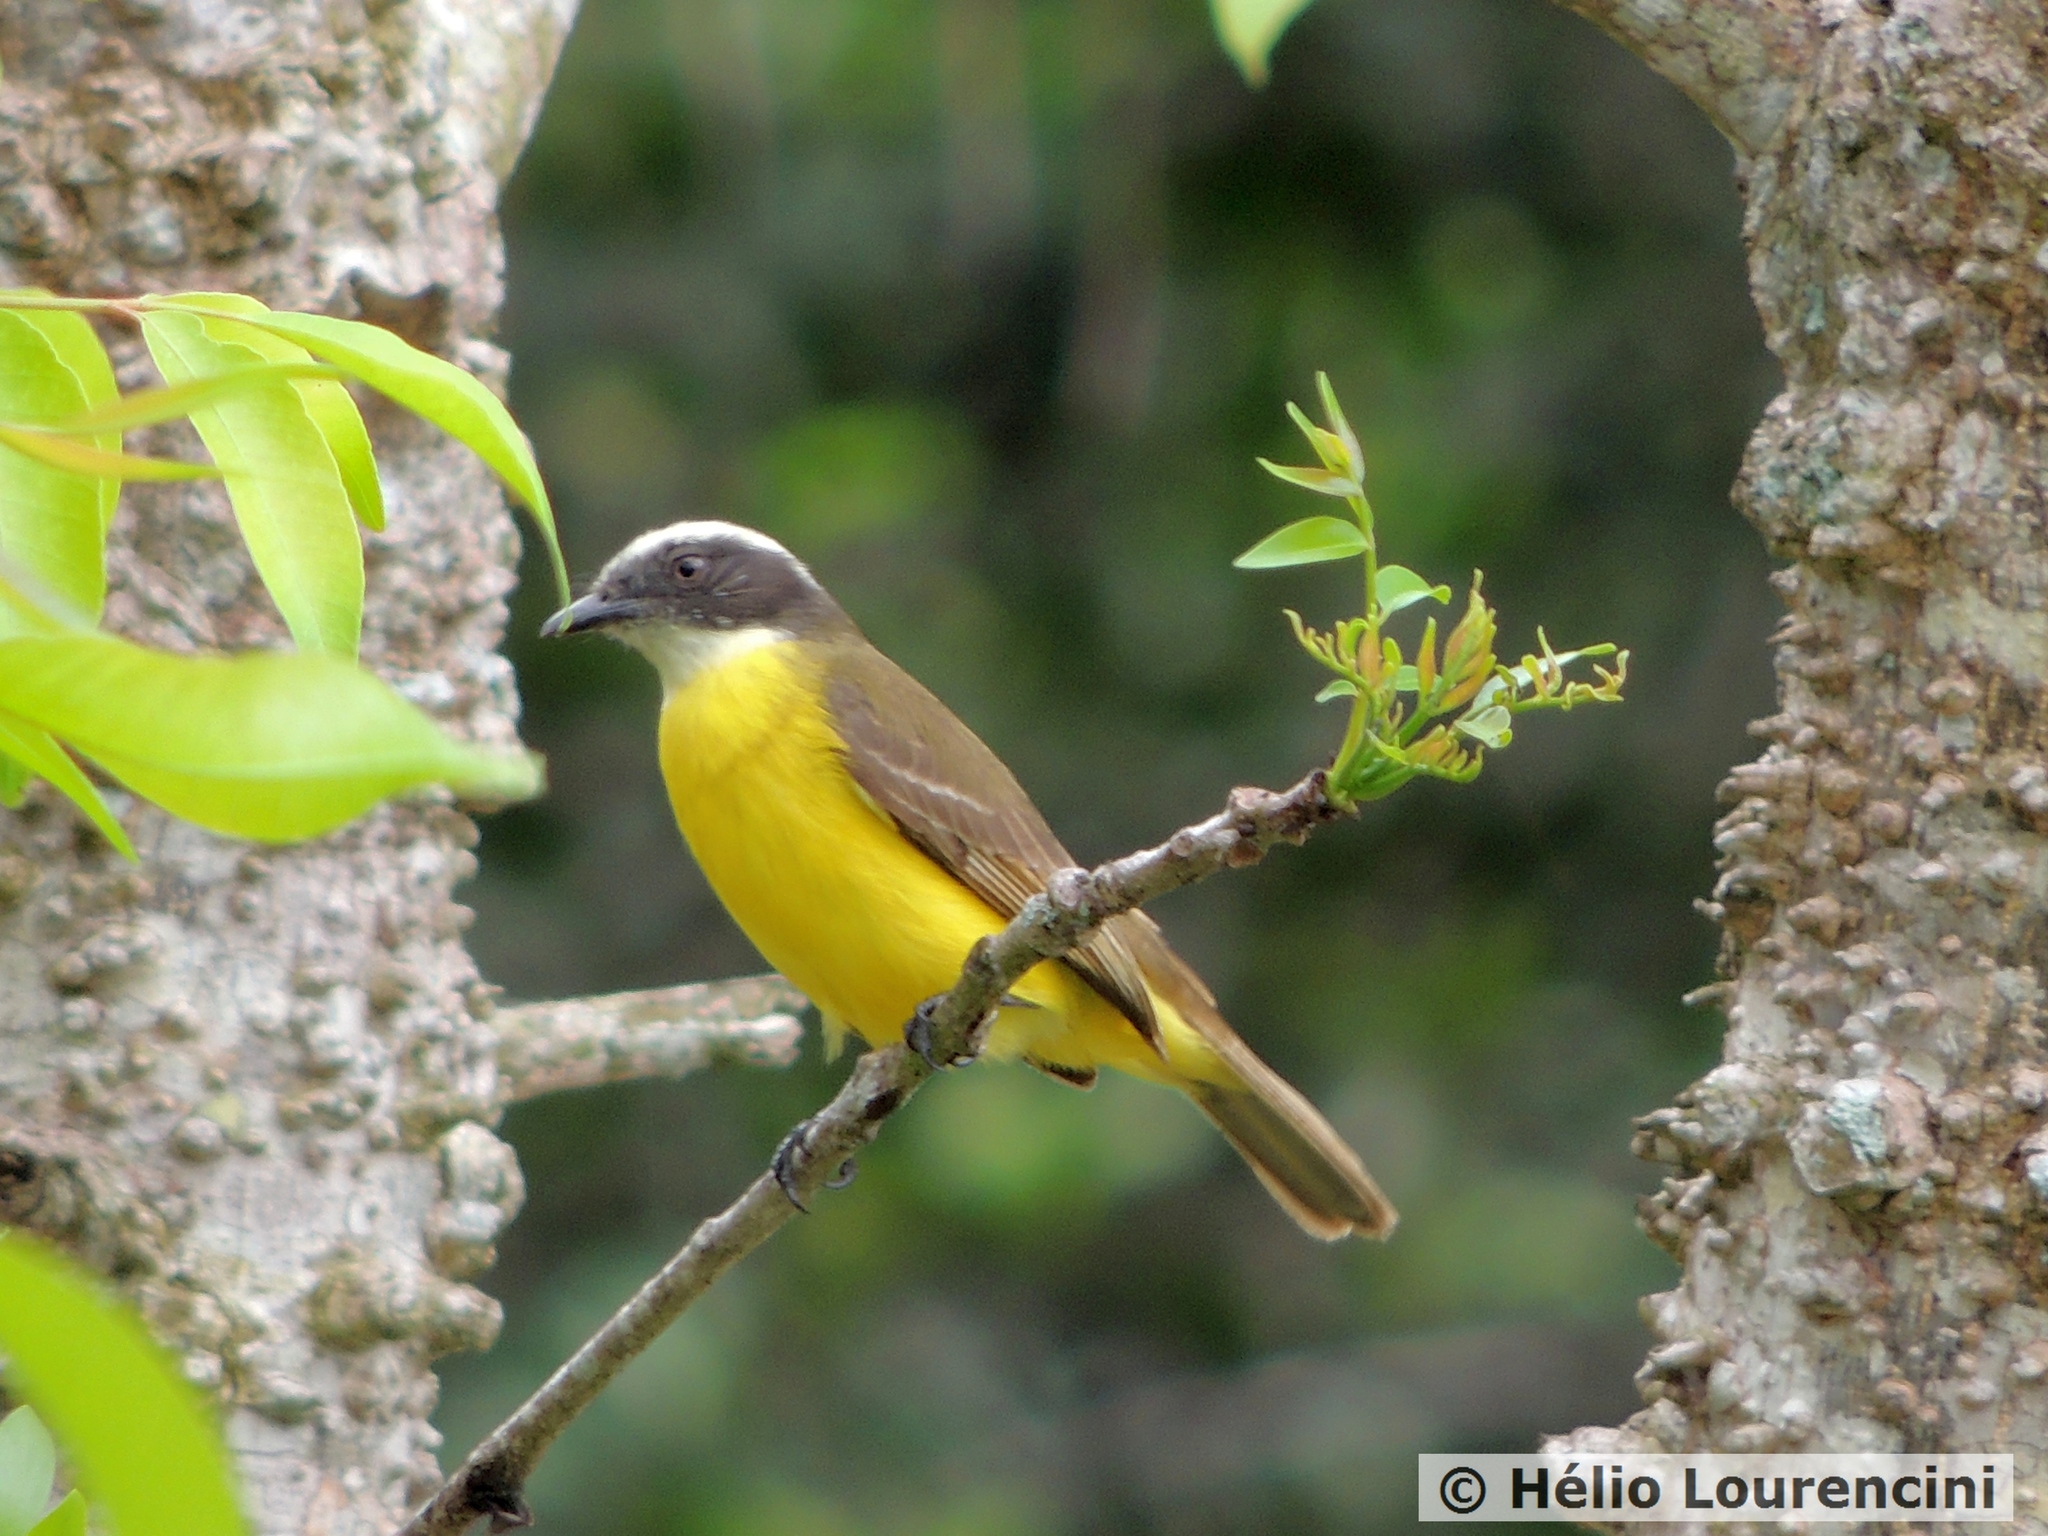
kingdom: Animalia
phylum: Chordata
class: Aves
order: Passeriformes
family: Tyrannidae
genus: Myiozetetes
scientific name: Myiozetetes similis
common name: Social flycatcher
